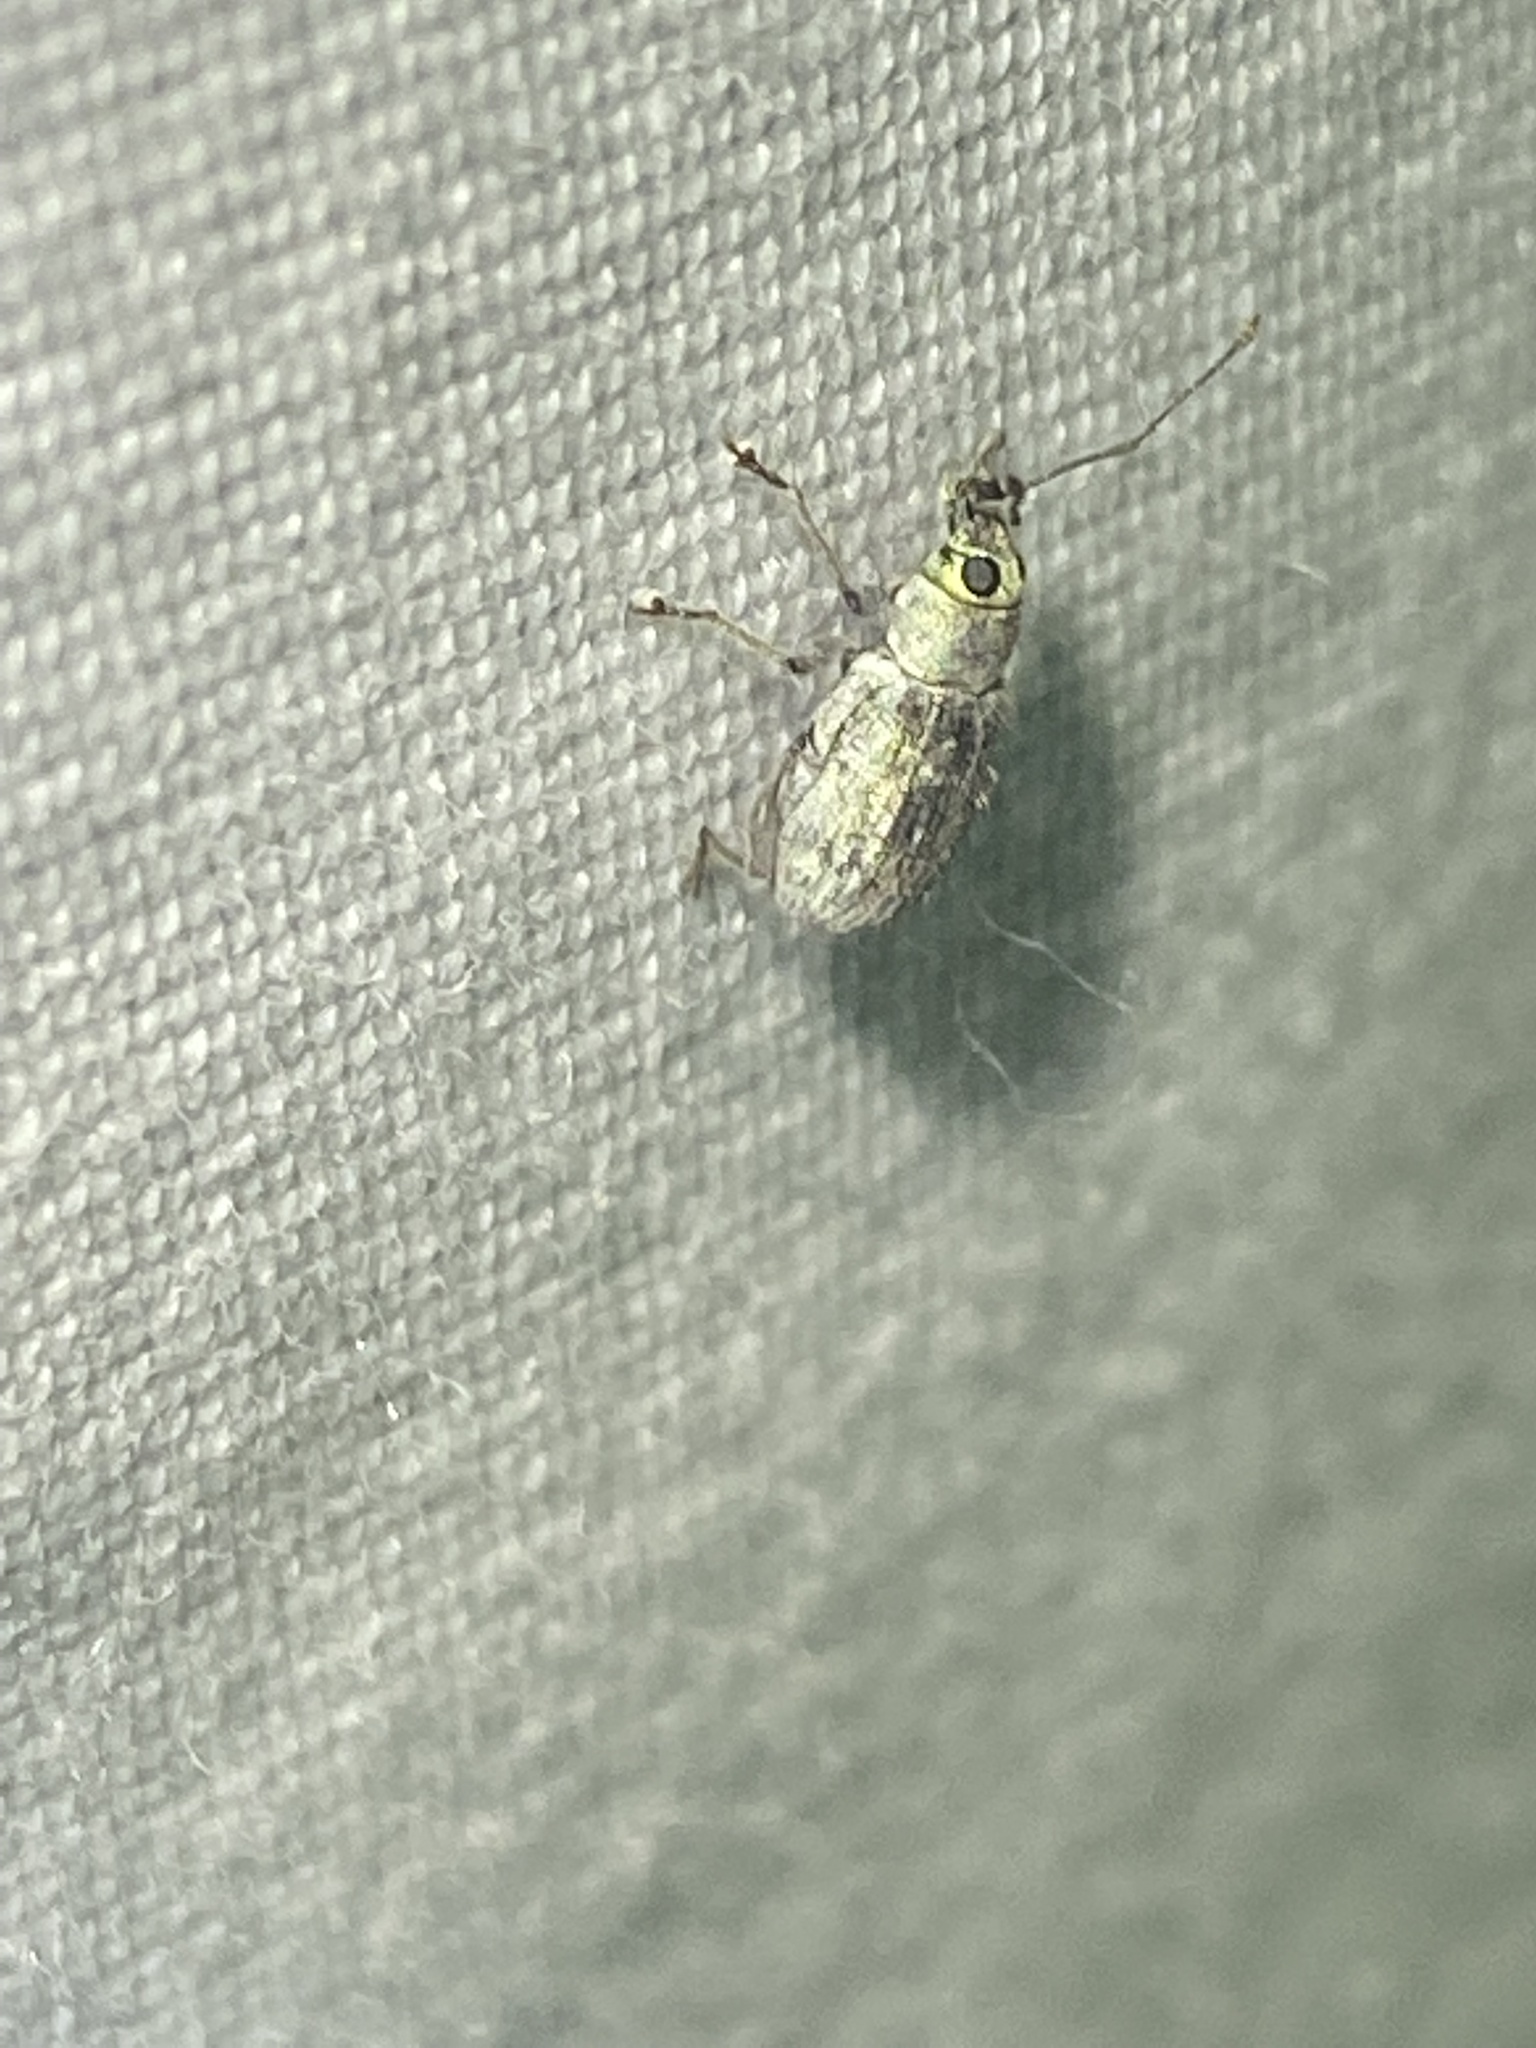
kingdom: Animalia
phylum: Arthropoda
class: Insecta
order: Coleoptera
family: Curculionidae
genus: Cyrtepistomus
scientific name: Cyrtepistomus castaneus
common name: Weevil
